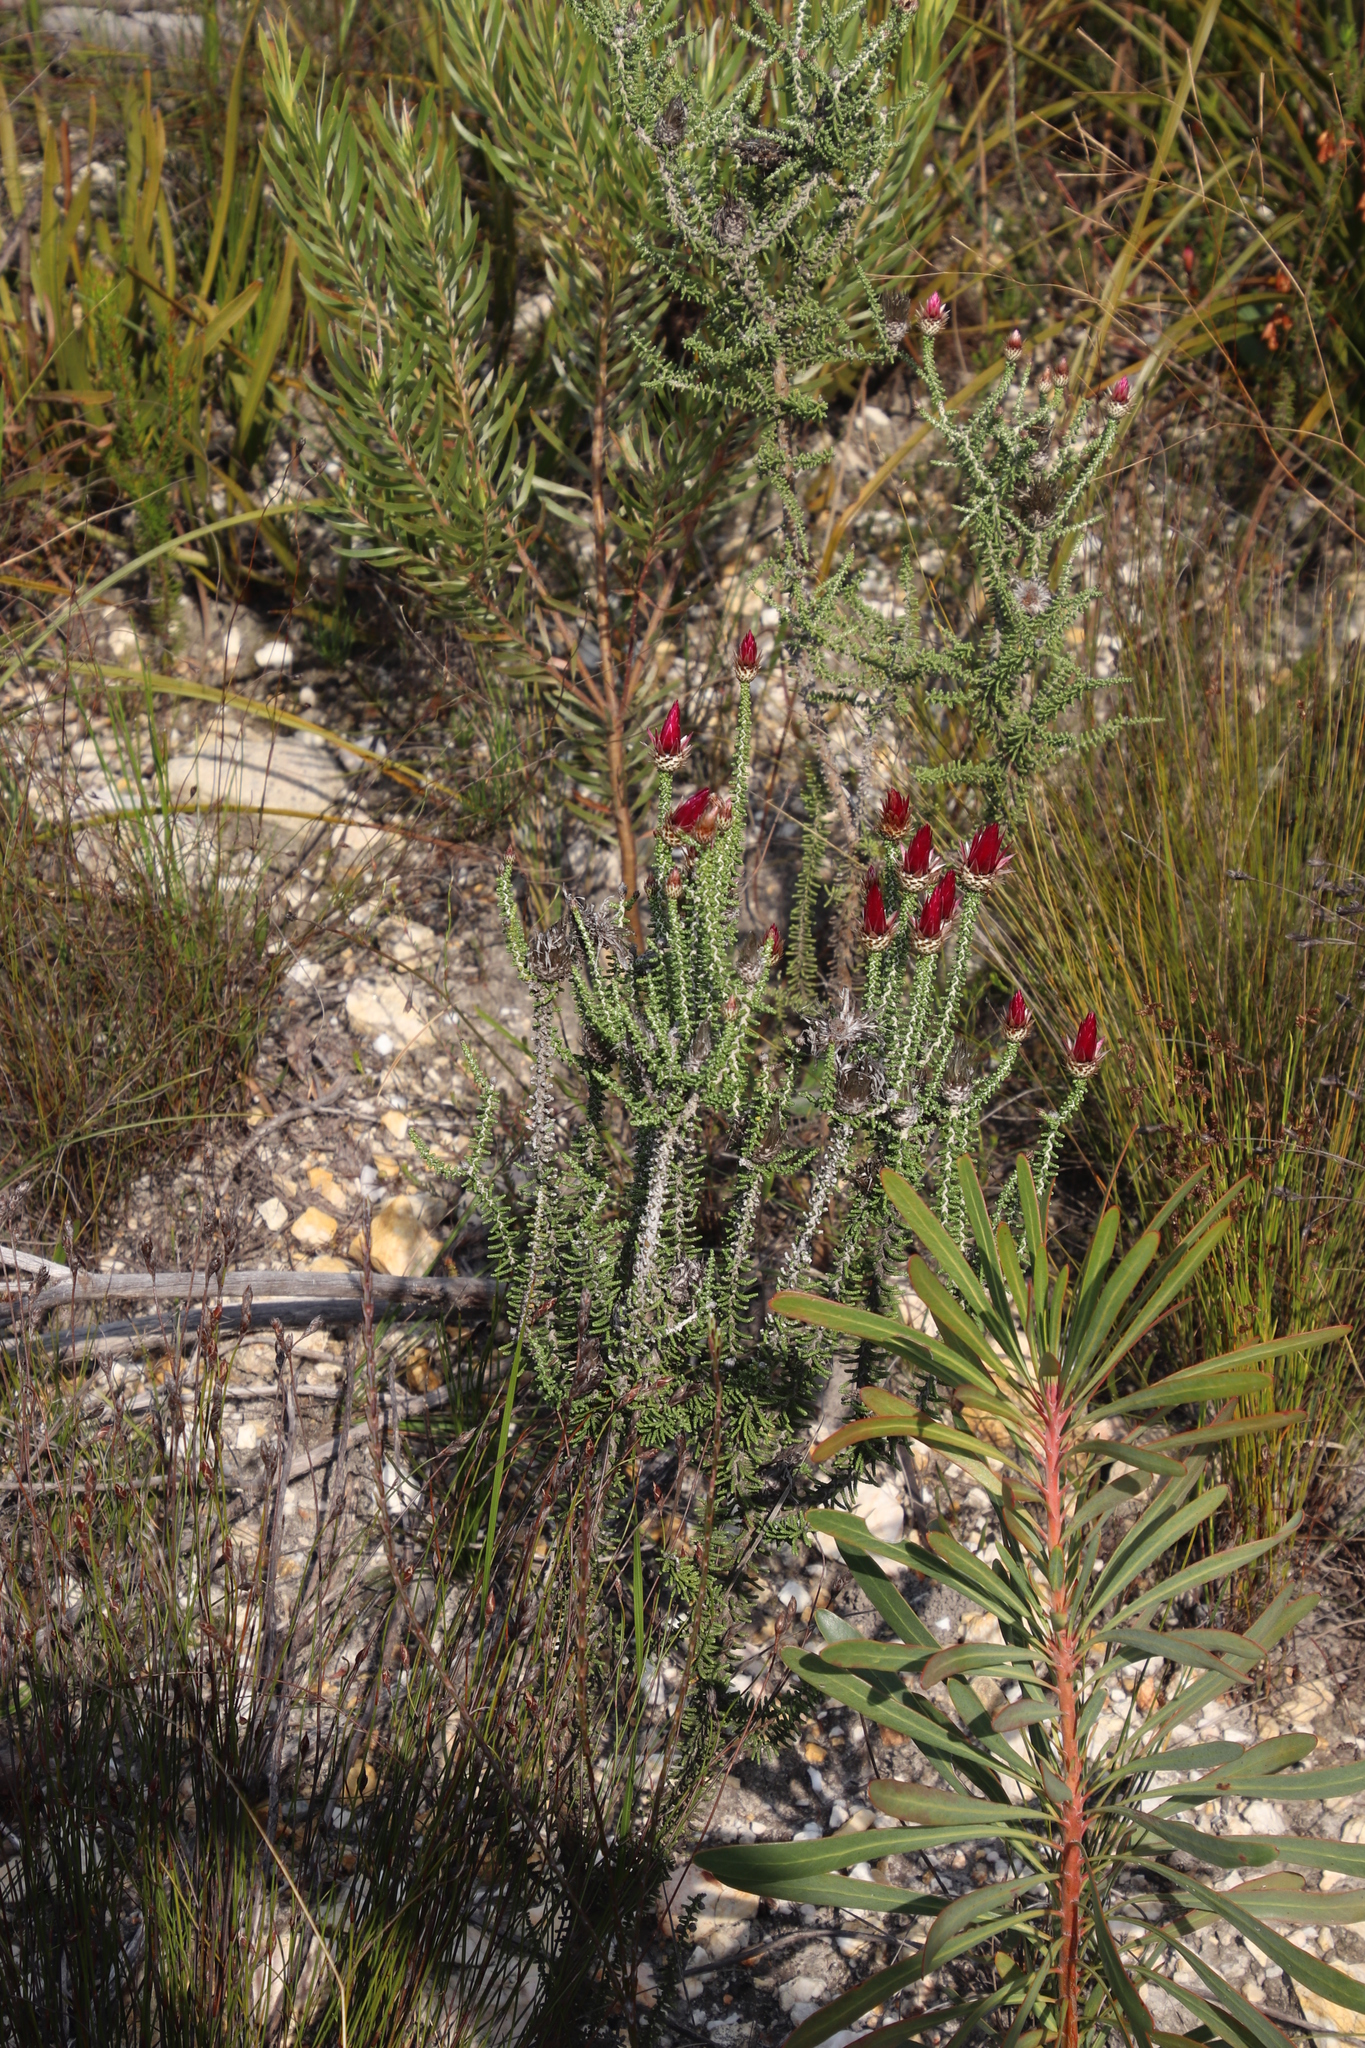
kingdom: Plantae
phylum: Tracheophyta
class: Magnoliopsida
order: Asterales
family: Asteraceae
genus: Phaenocoma
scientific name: Phaenocoma prolifera
